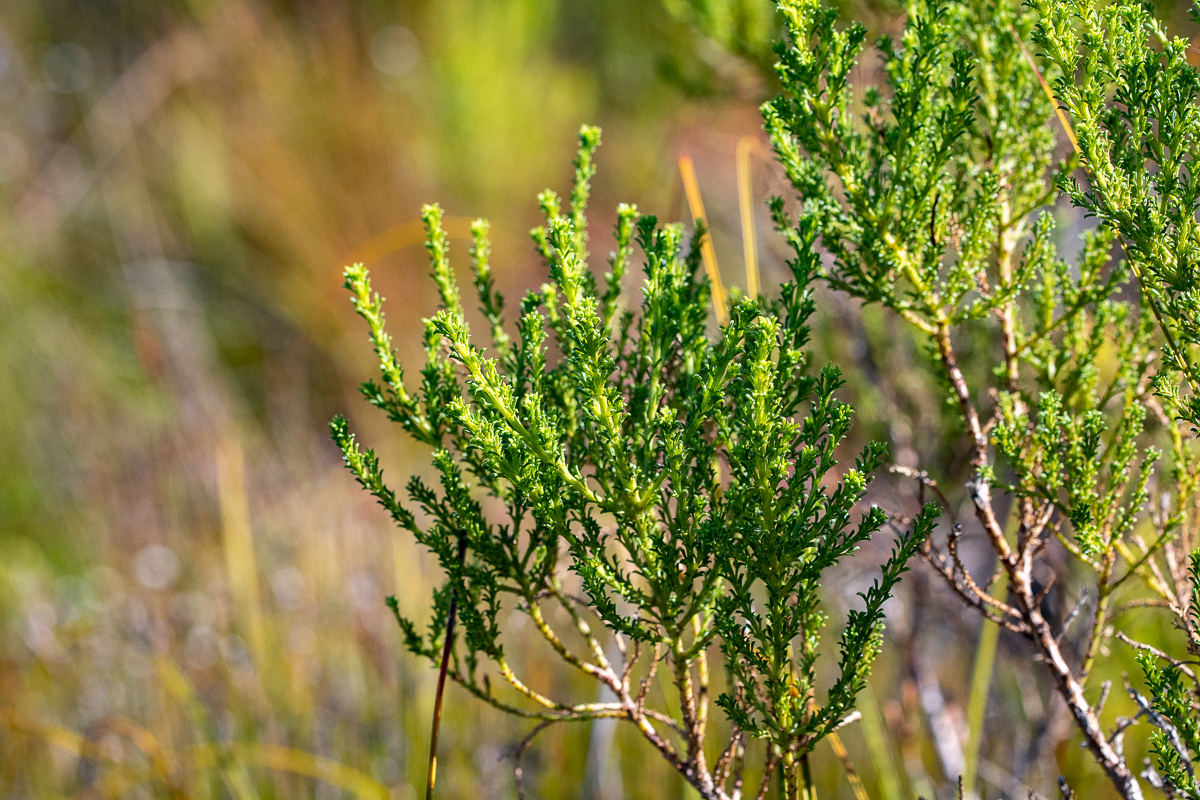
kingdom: Plantae
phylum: Tracheophyta
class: Magnoliopsida
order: Fabales
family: Fabaceae
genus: Psoralea
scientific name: Psoralea aculeata
